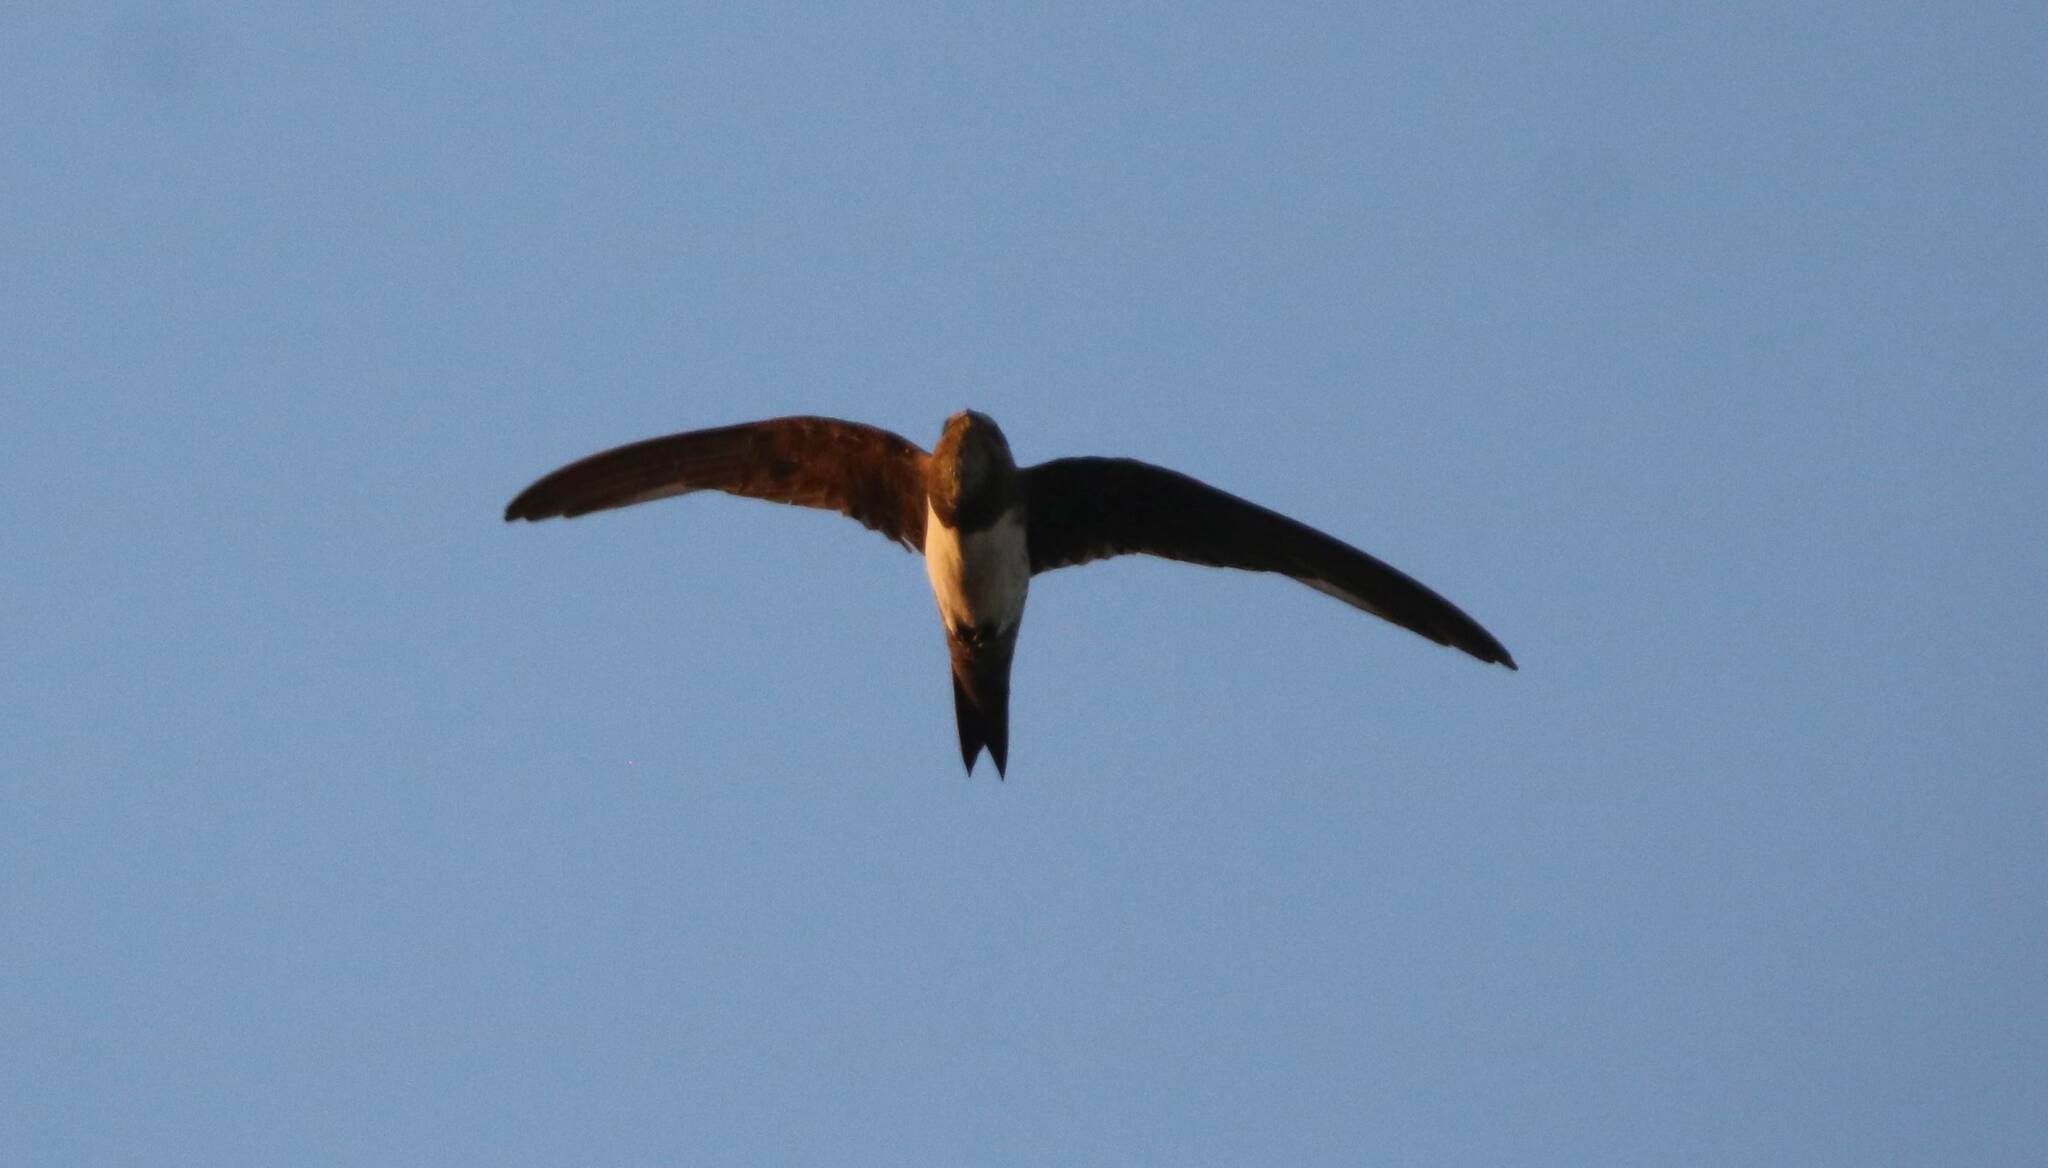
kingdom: Animalia
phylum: Chordata
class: Aves
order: Apodiformes
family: Apodidae
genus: Tachymarptis
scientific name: Tachymarptis melba
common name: Alpine swift
